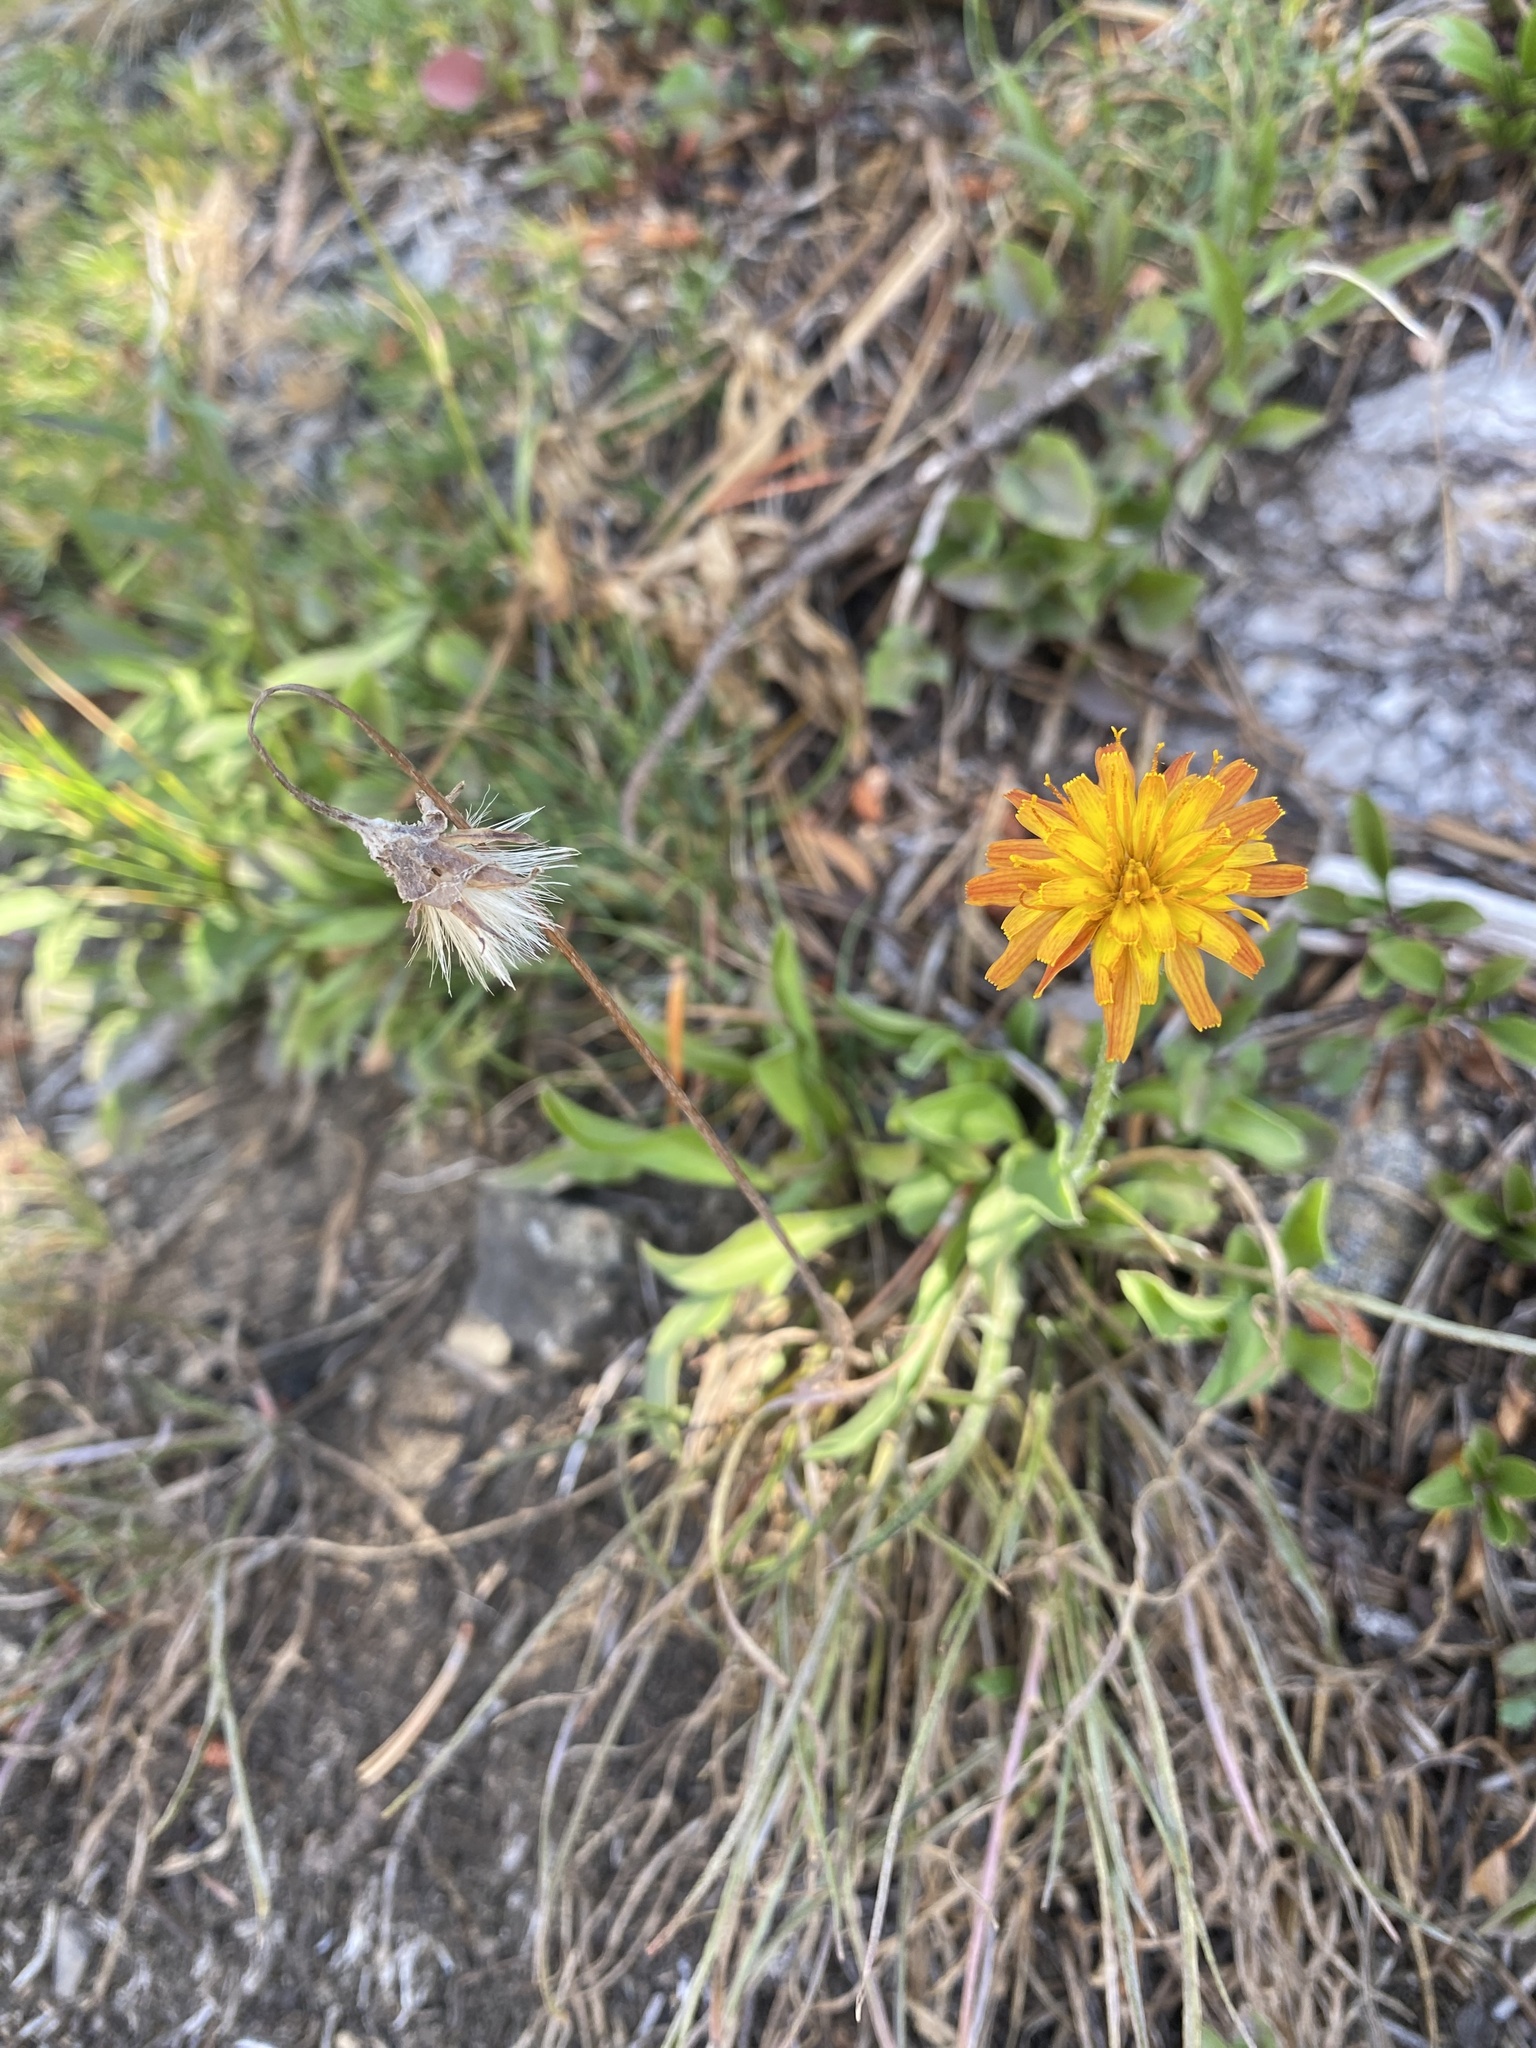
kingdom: Plantae
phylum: Tracheophyta
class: Magnoliopsida
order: Asterales
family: Asteraceae
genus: Agoseris
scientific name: Agoseris aurantiaca
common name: Mountain agoseris
